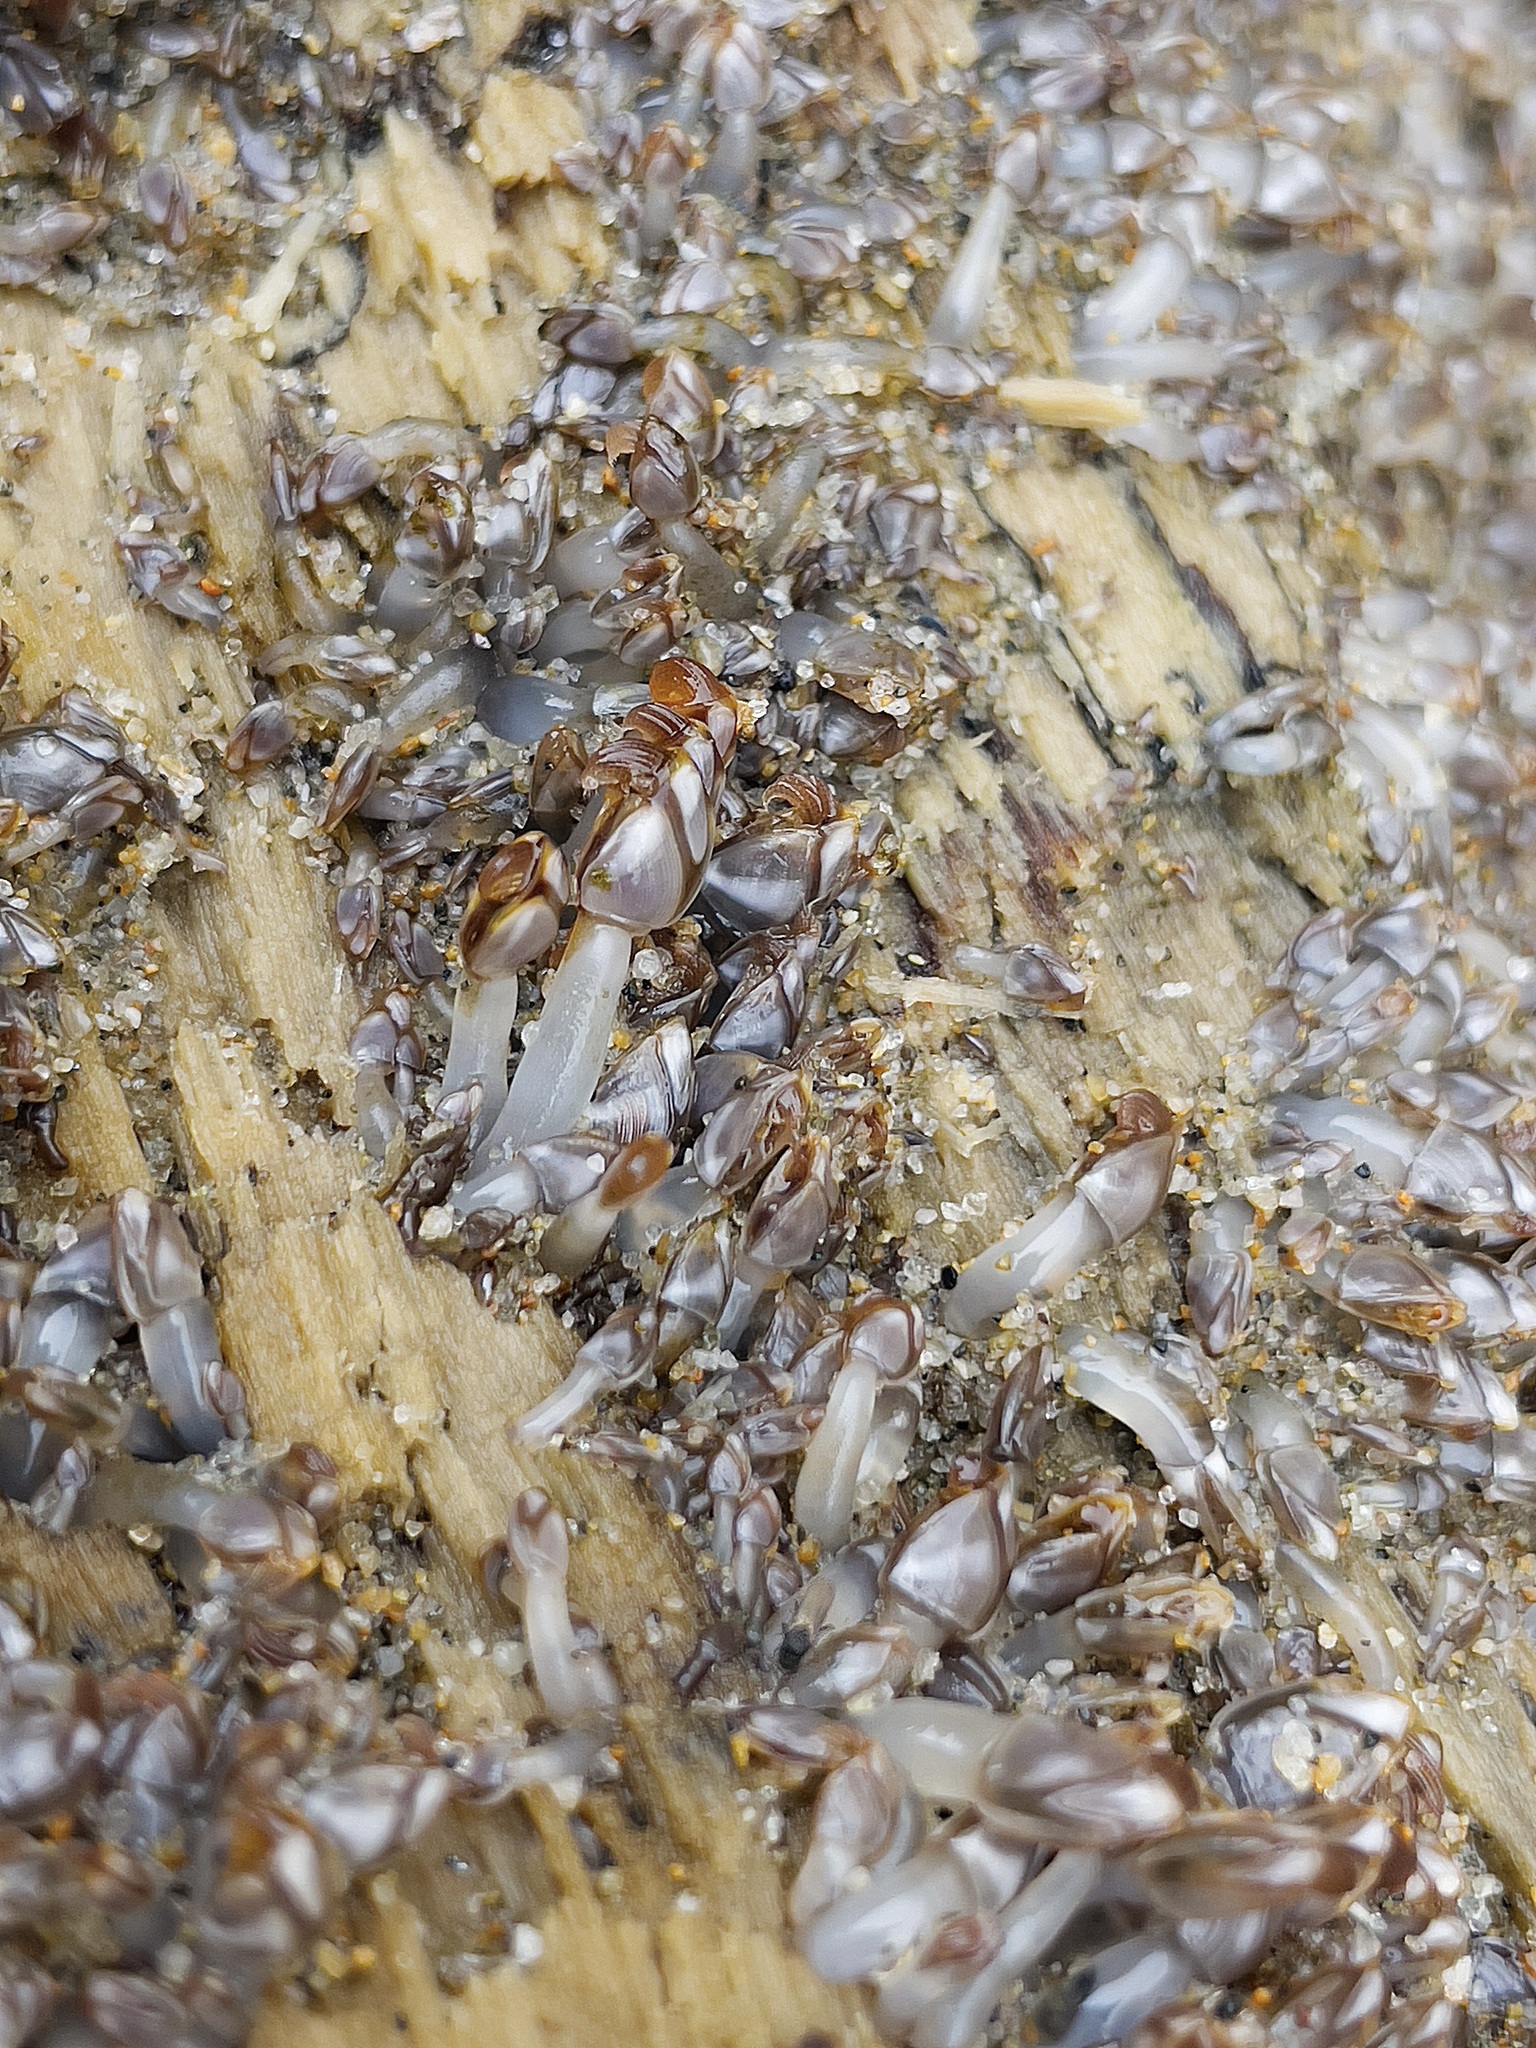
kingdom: Animalia
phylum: Arthropoda
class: Maxillopoda
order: Pedunculata
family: Lepadidae
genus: Lepas
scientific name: Lepas pacifica
